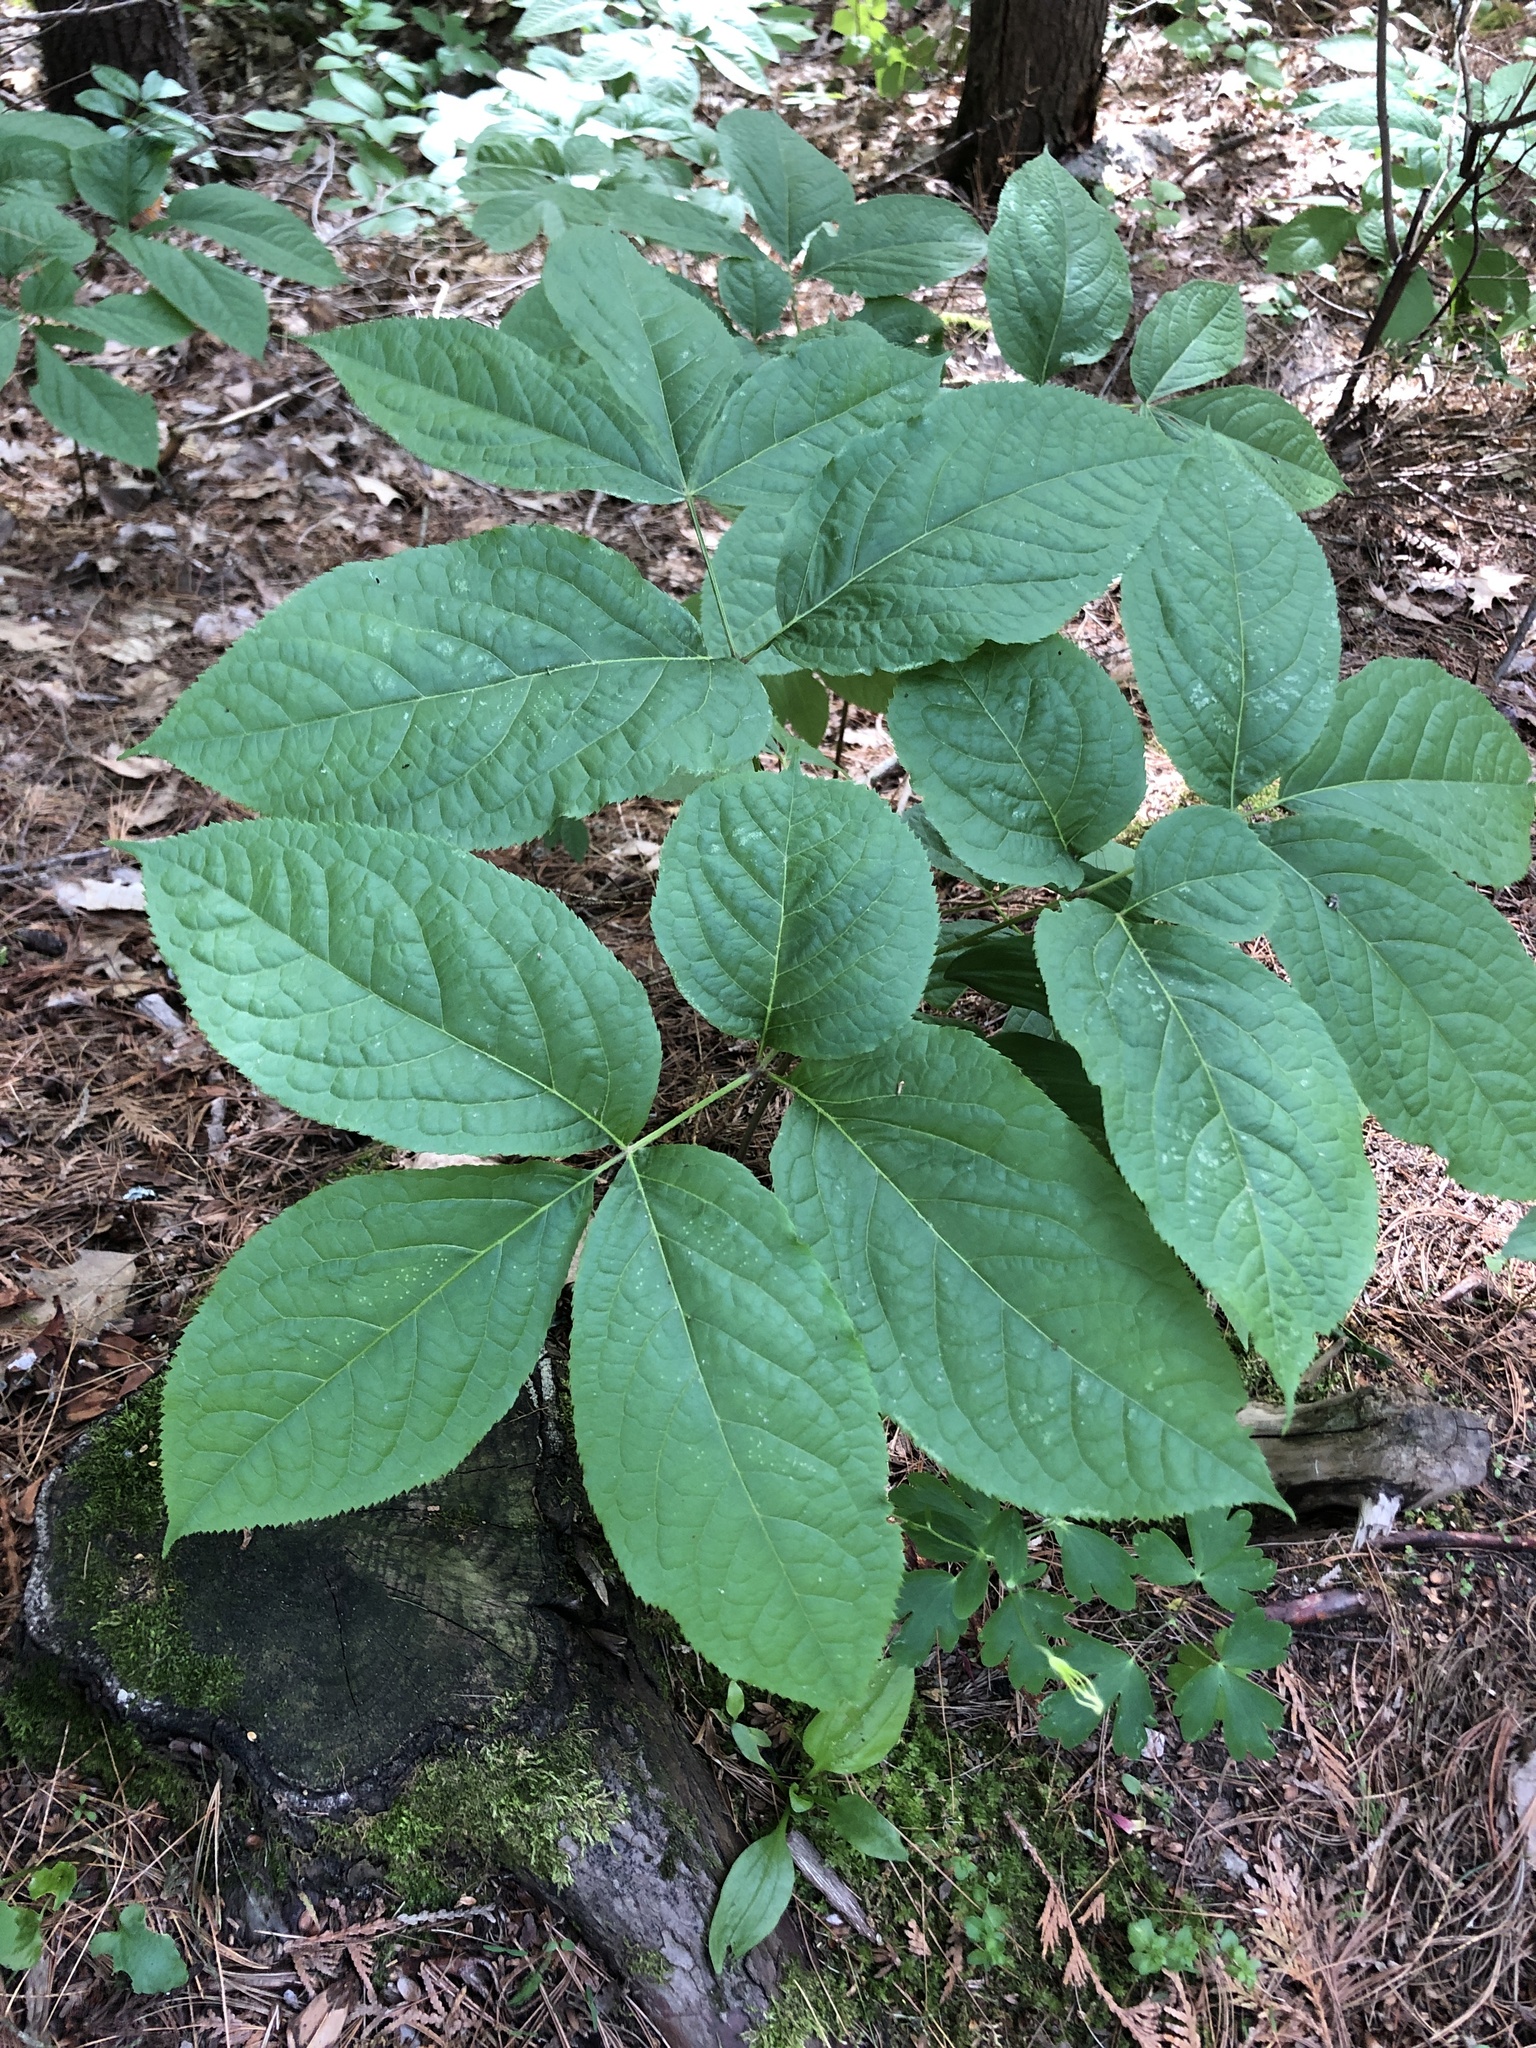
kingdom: Plantae
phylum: Tracheophyta
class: Magnoliopsida
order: Apiales
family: Araliaceae
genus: Aralia
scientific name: Aralia nudicaulis
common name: Wild sarsaparilla
